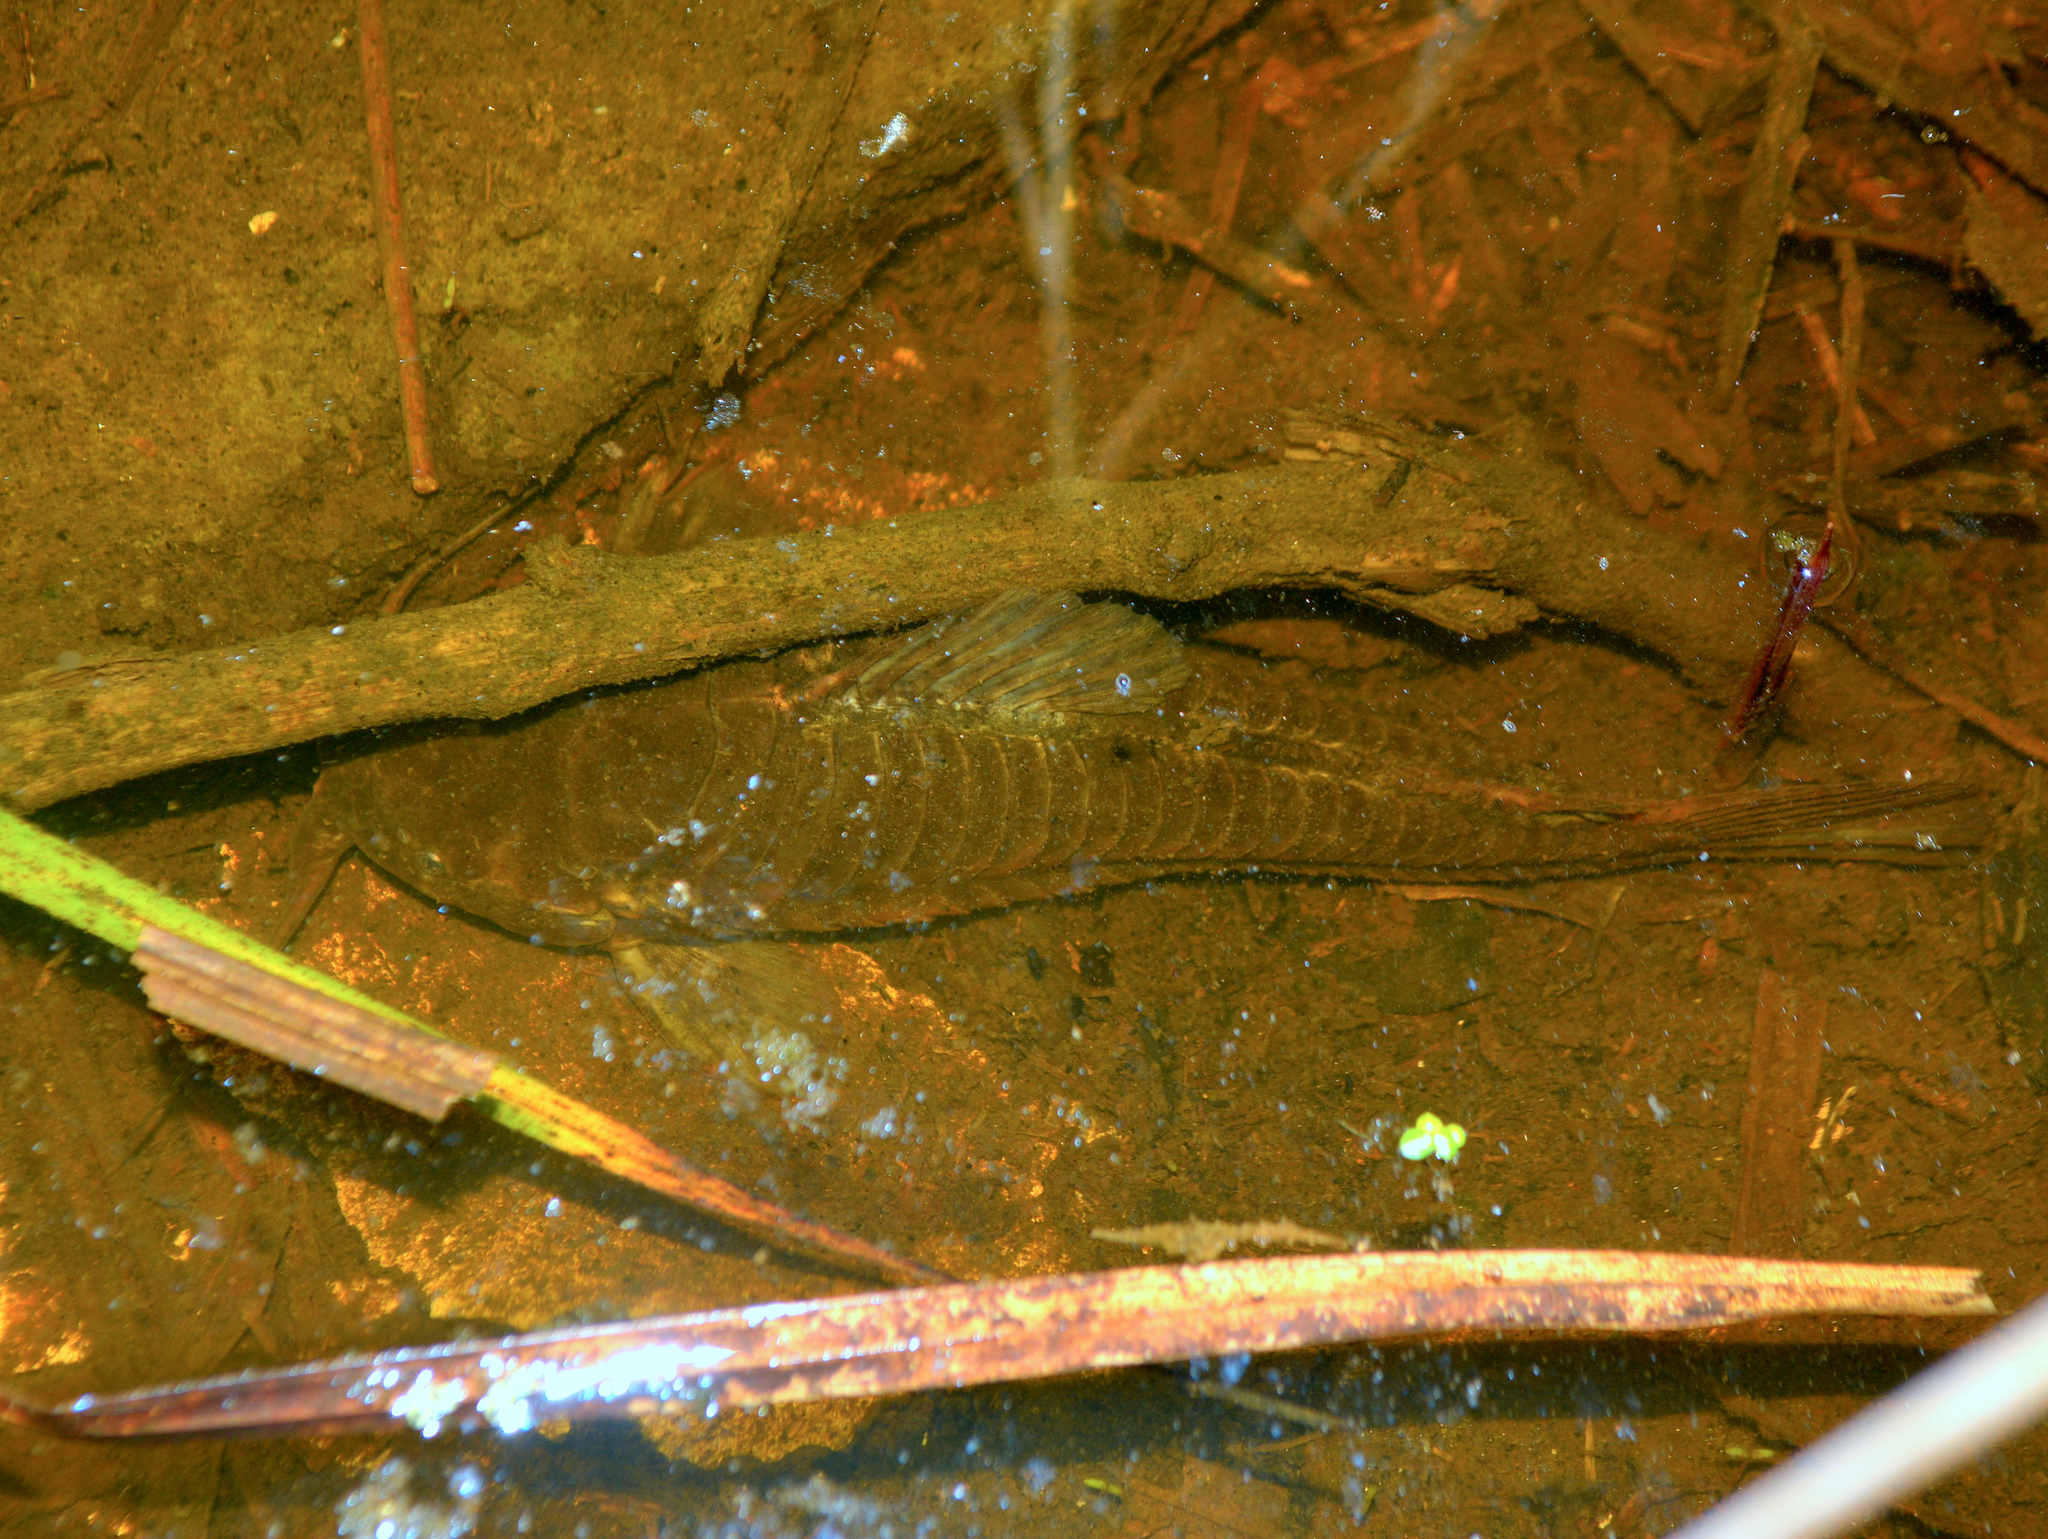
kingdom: Animalia
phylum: Chordata
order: Siluriformes
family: Callichthyidae
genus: Callichthys
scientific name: Callichthys callichthys
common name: Cascarudo
